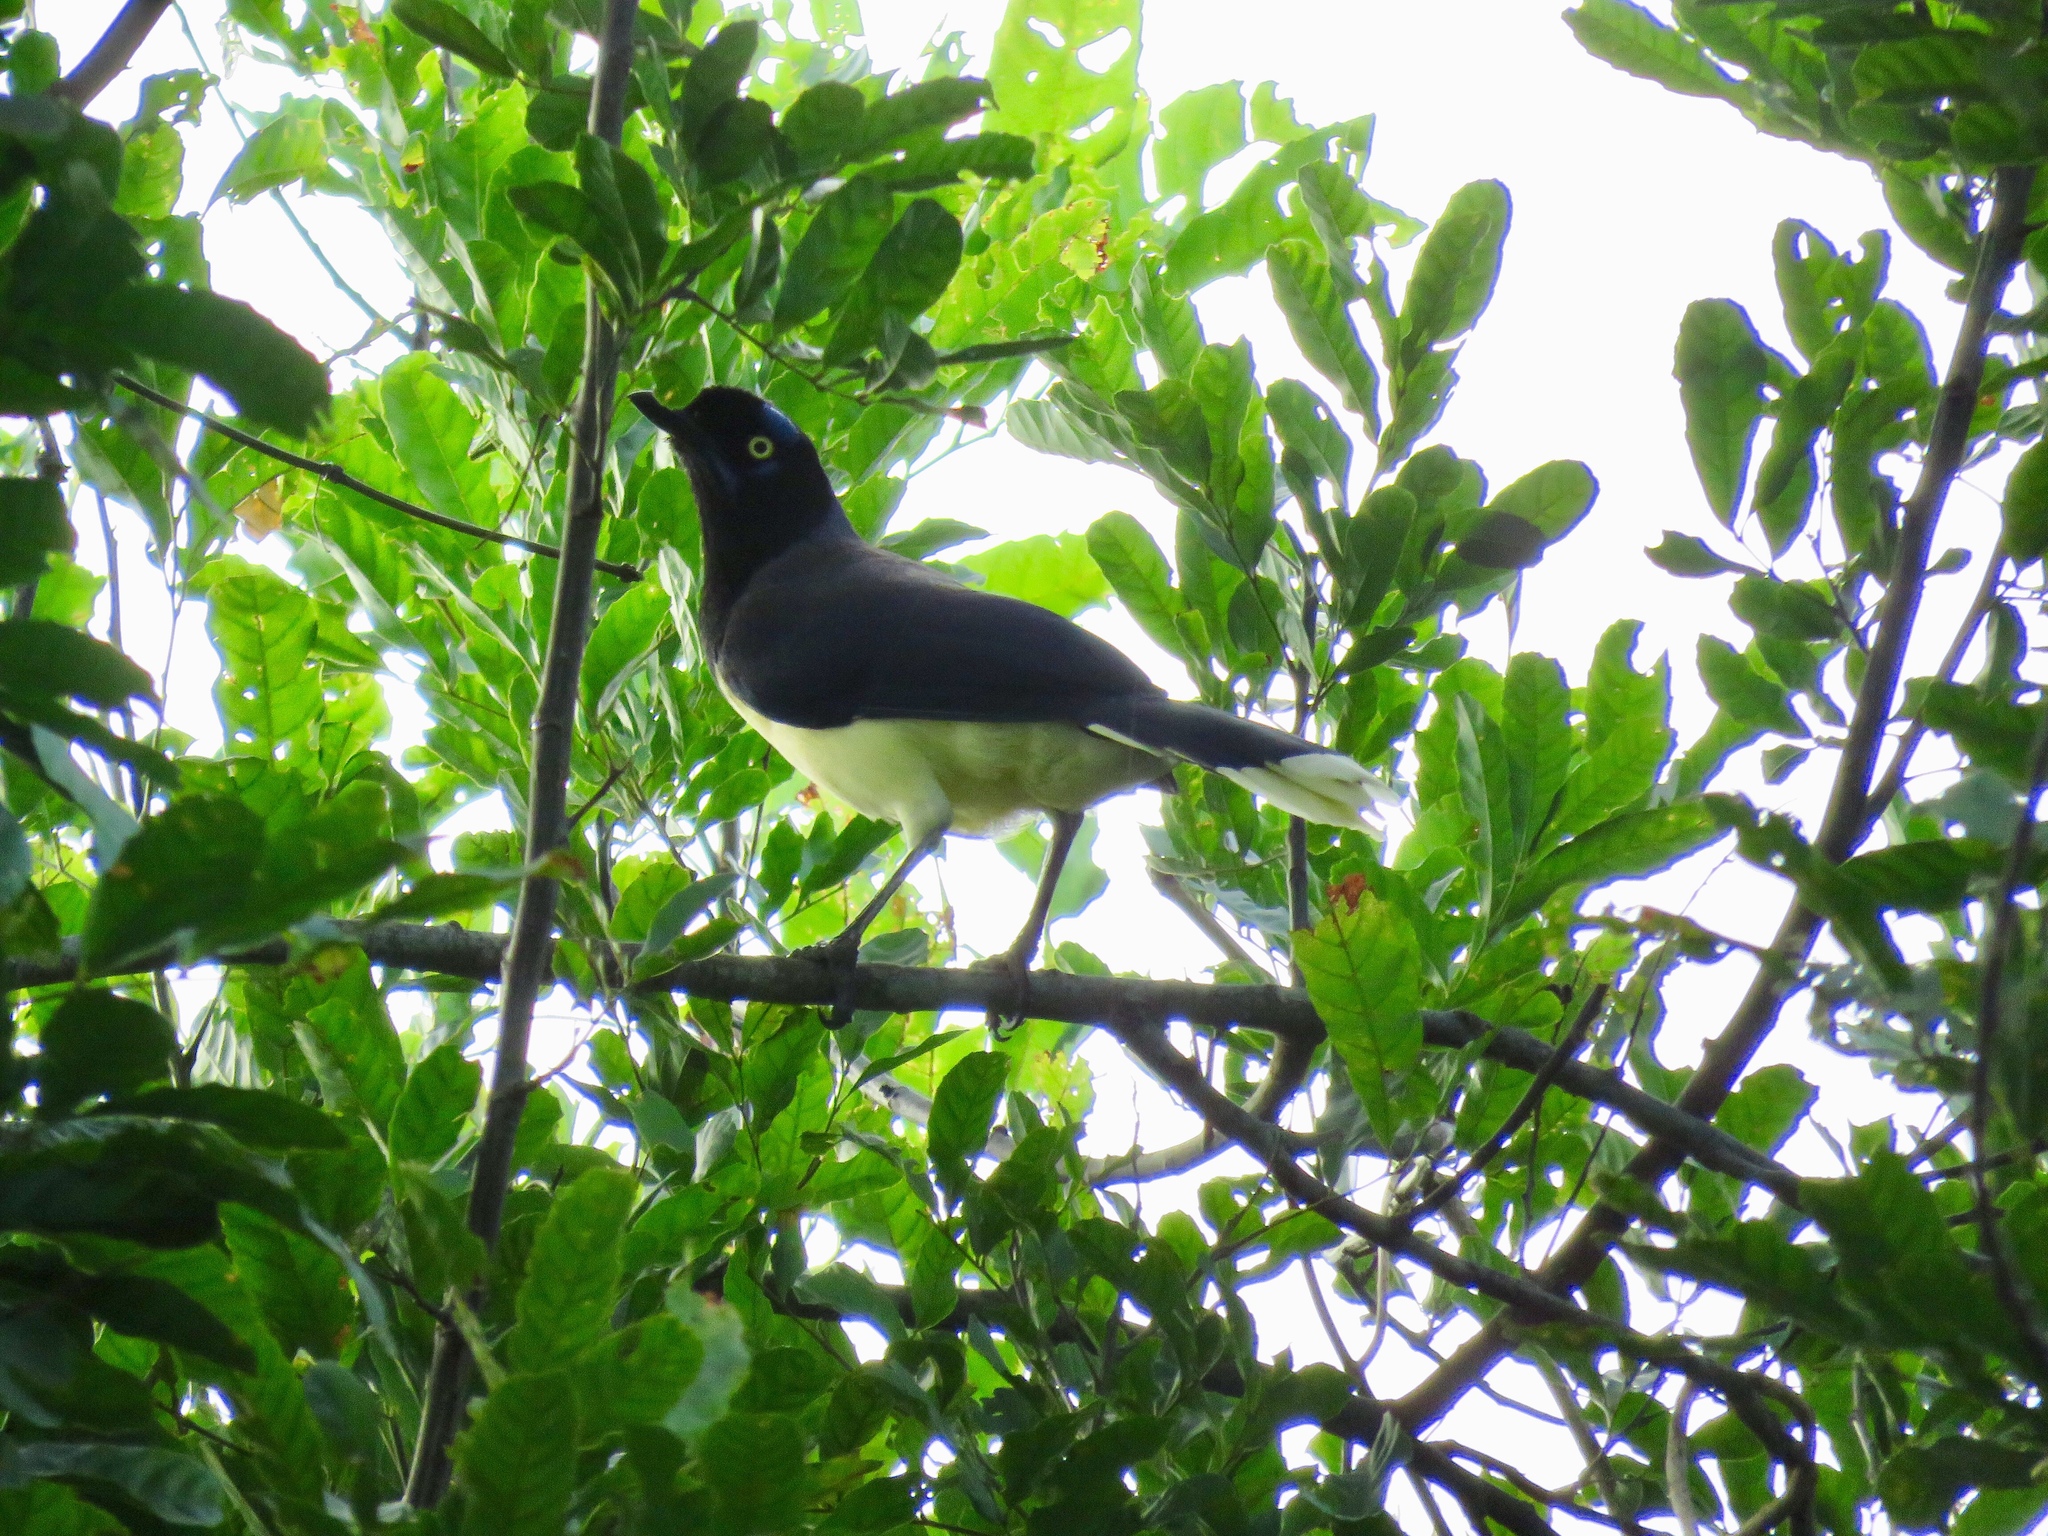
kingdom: Animalia
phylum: Chordata
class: Aves
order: Passeriformes
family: Corvidae
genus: Cyanocorax
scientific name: Cyanocorax affinis
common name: Black-chested jay
